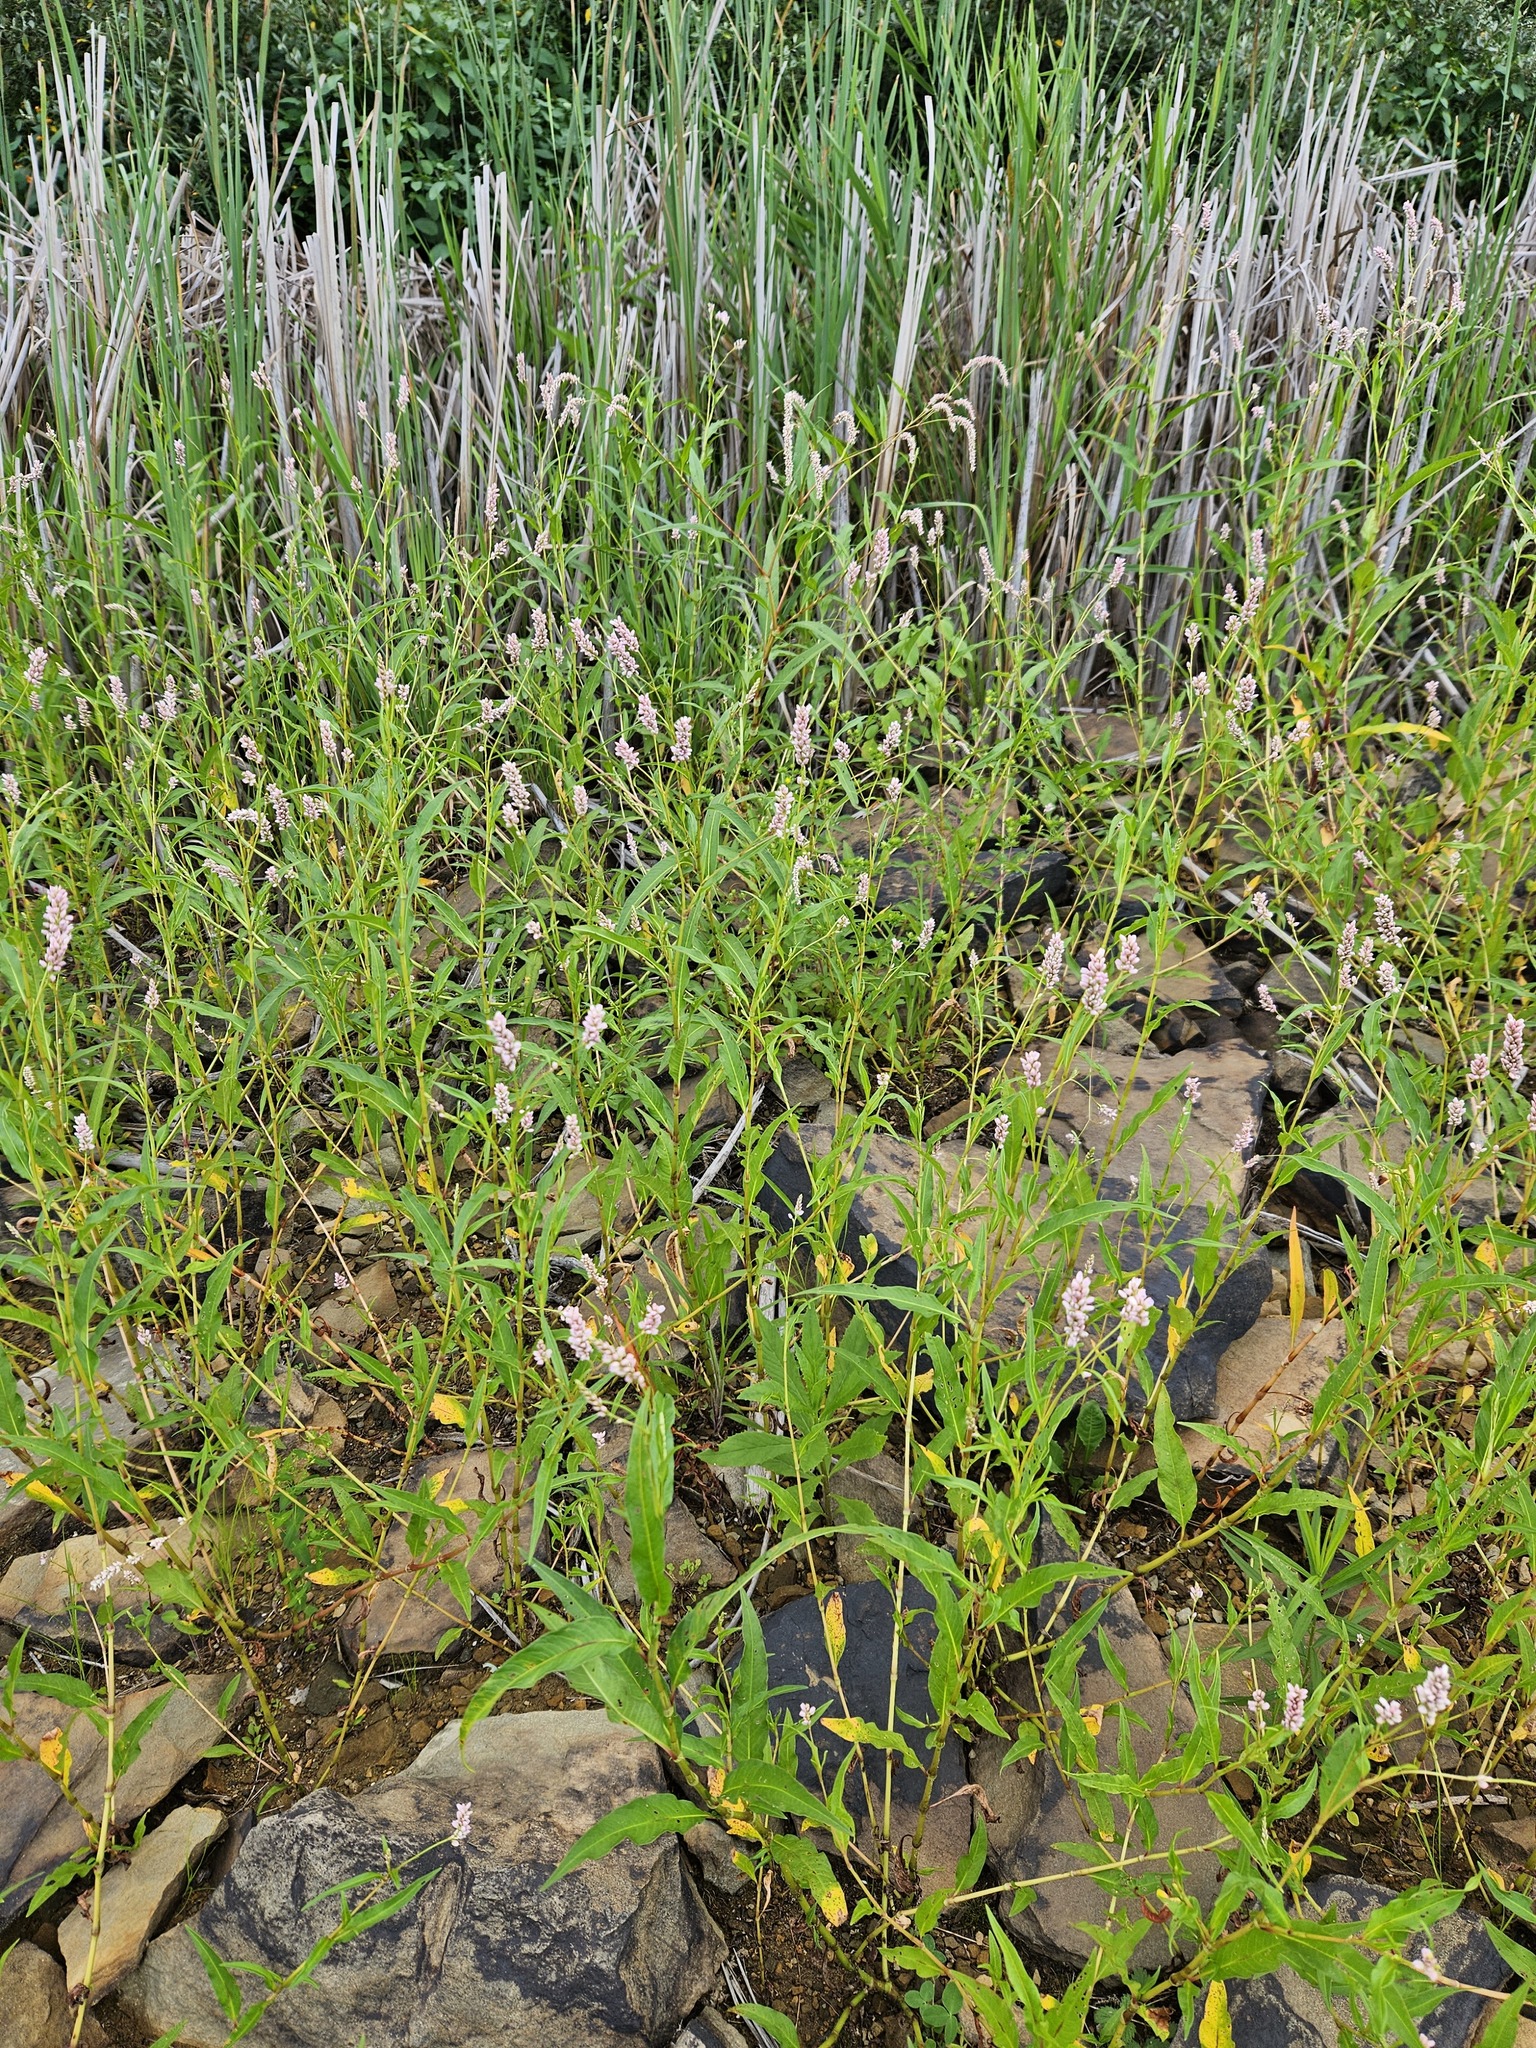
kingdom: Plantae
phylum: Tracheophyta
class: Magnoliopsida
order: Caryophyllales
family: Polygonaceae
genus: Persicaria
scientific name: Persicaria pensylvanica
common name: Pinkweed
